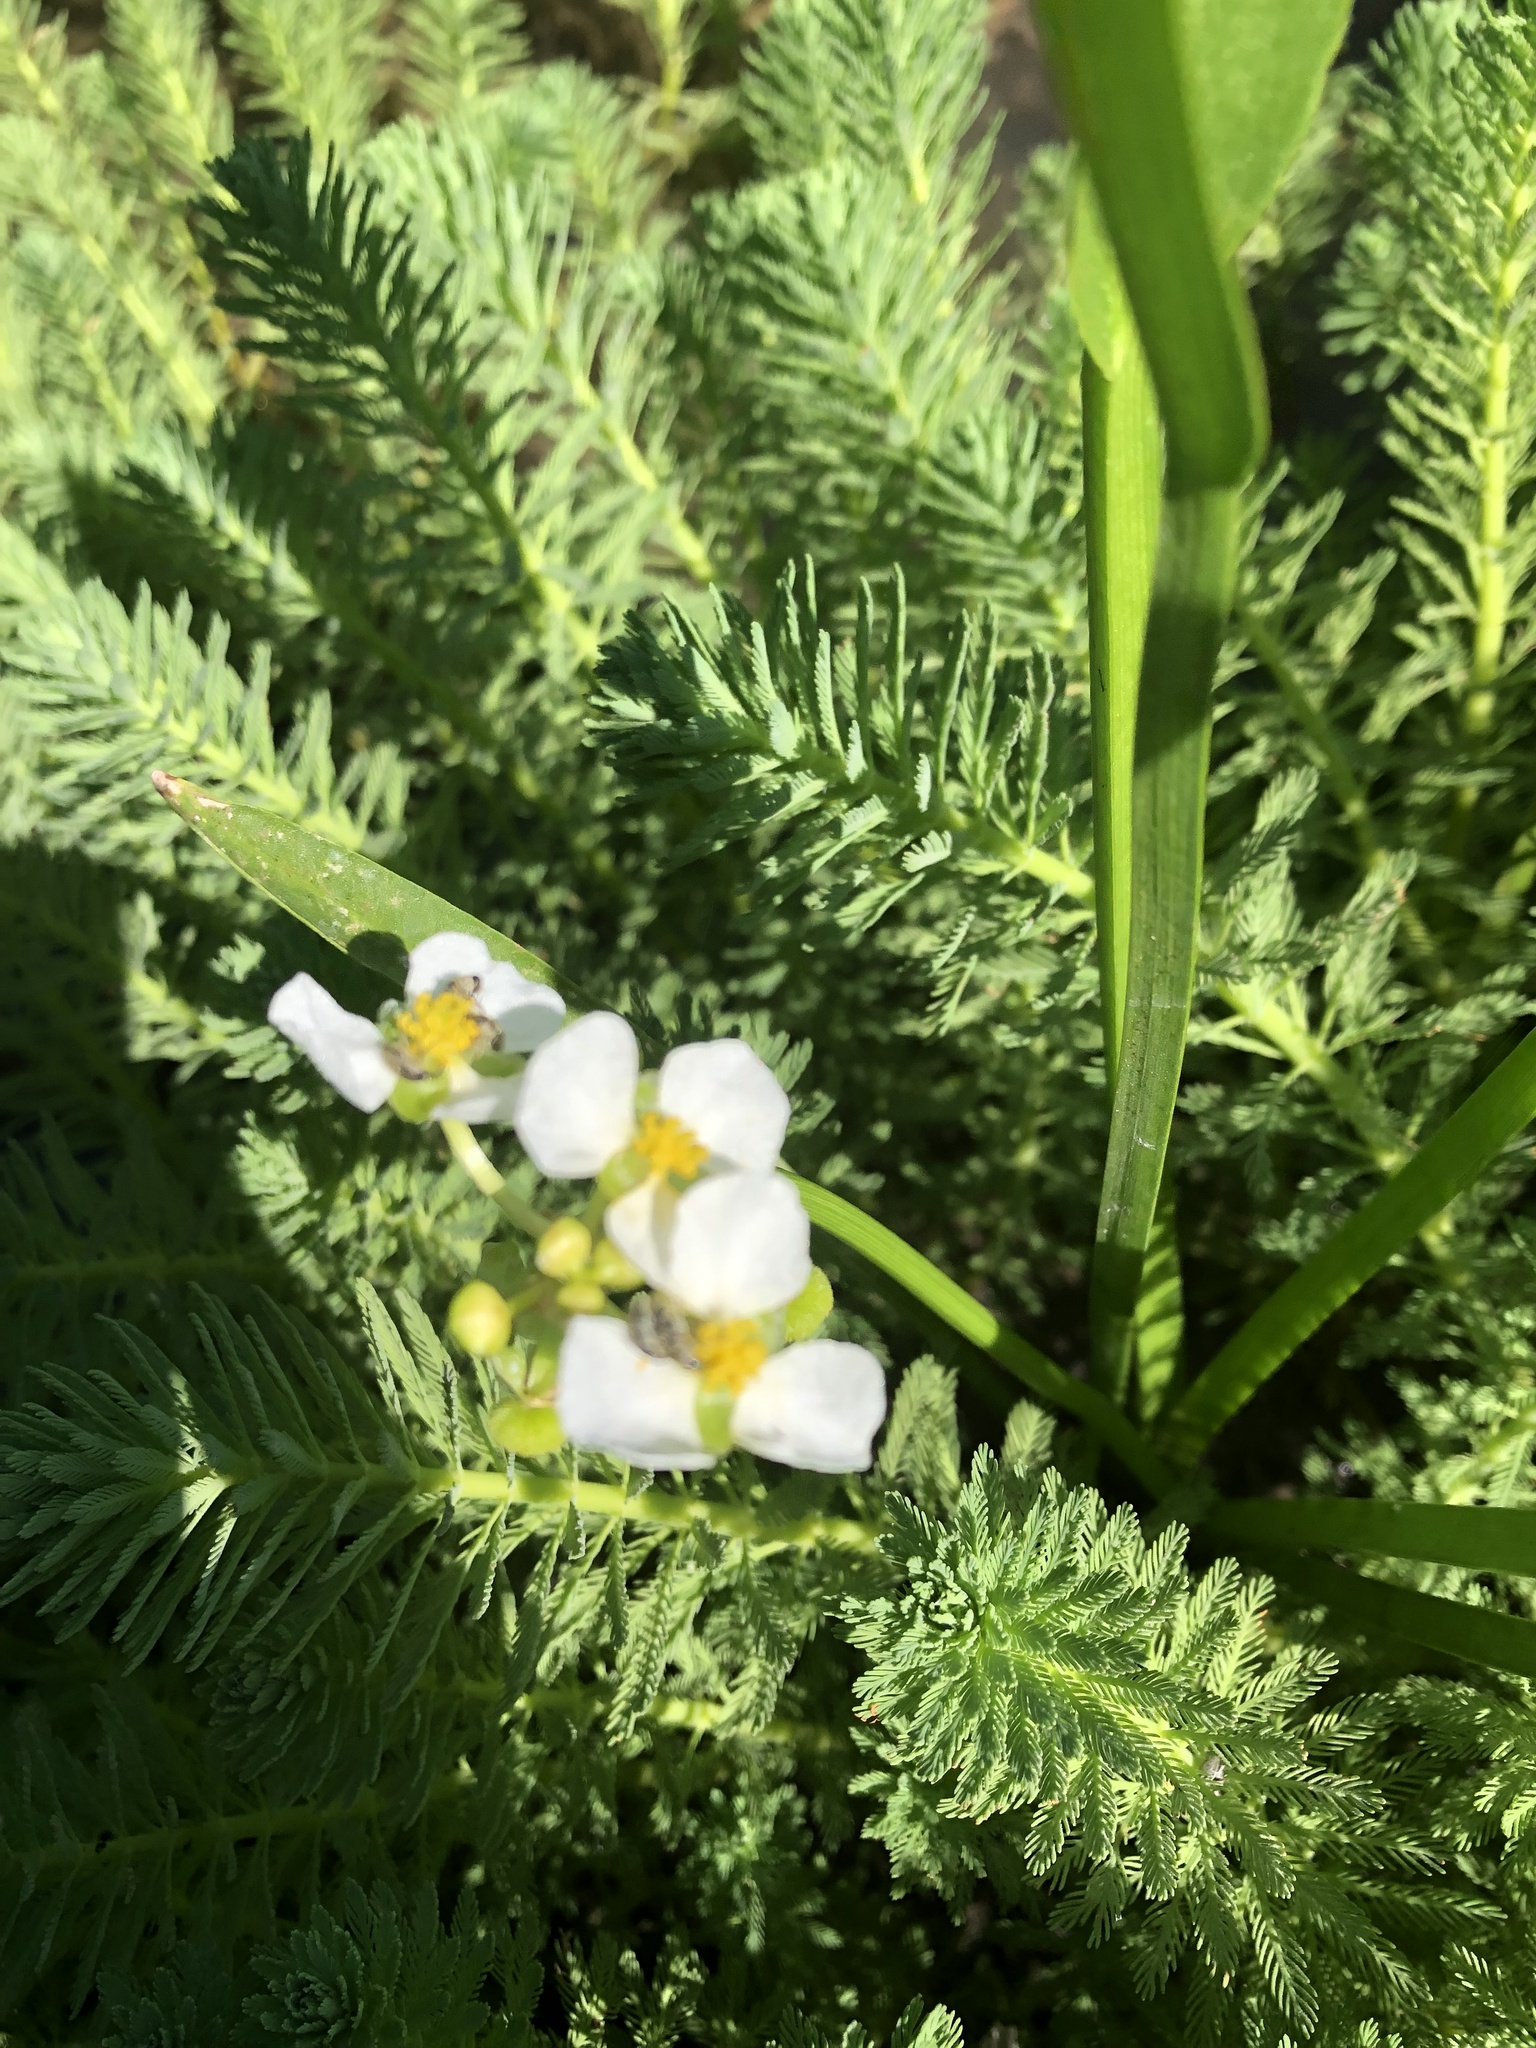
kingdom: Plantae
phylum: Tracheophyta
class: Liliopsida
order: Alismatales
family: Alismataceae
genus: Sagittaria
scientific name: Sagittaria platyphylla
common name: Broad-leaf arrowhead
